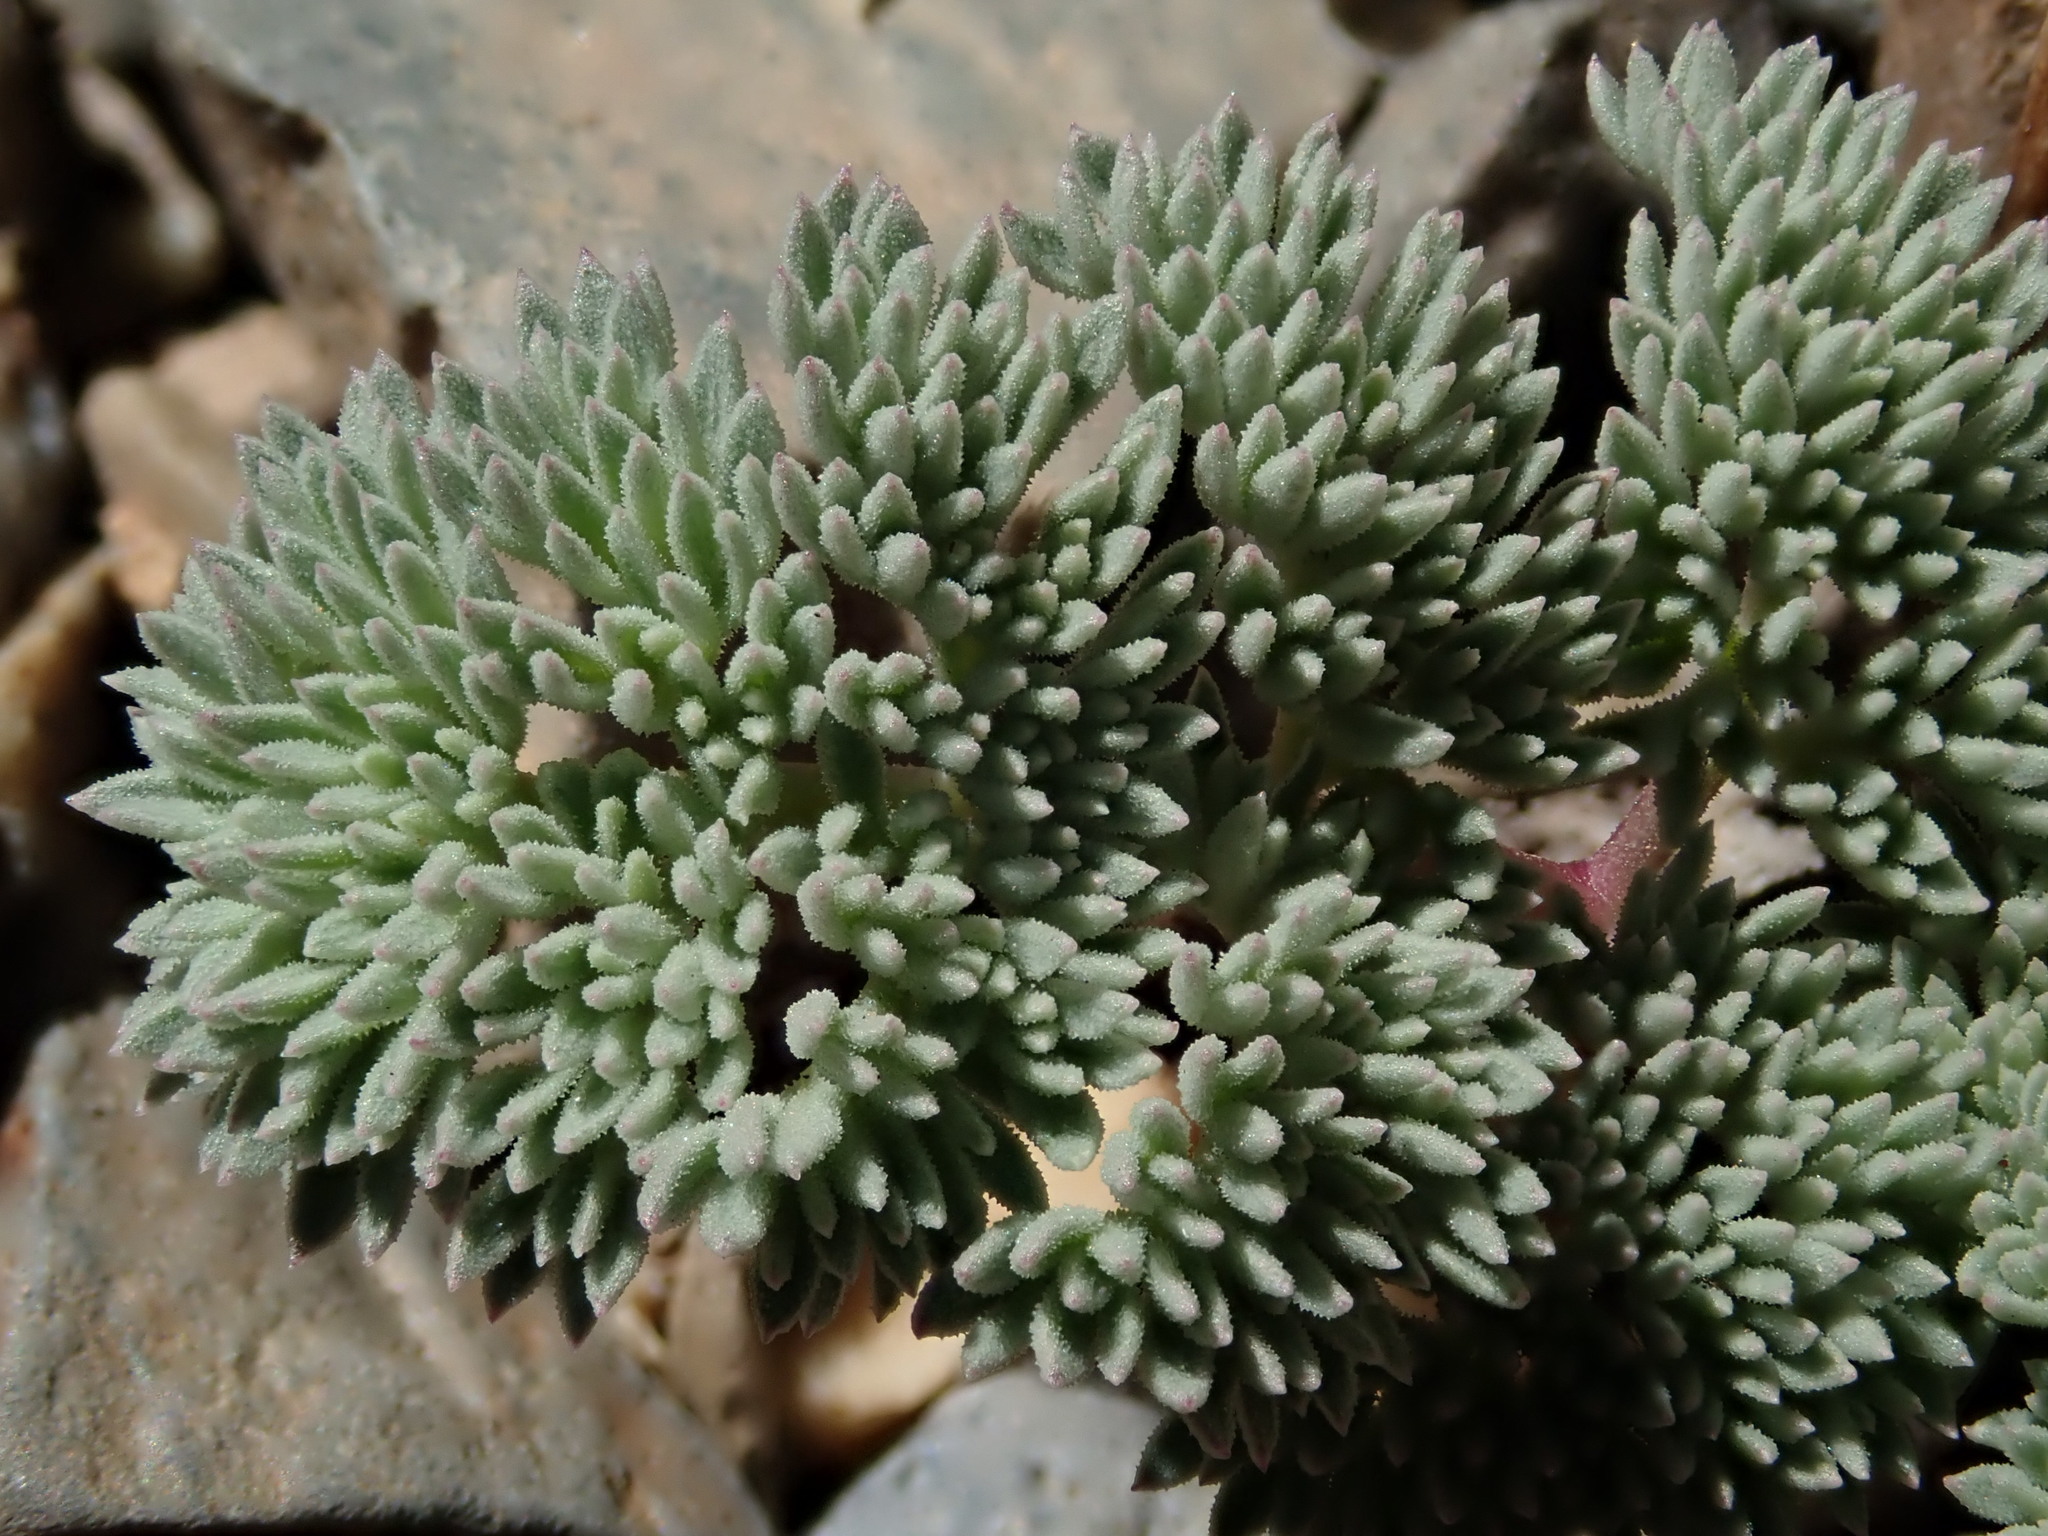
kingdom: Plantae
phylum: Tracheophyta
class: Magnoliopsida
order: Apiales
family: Apiaceae
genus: Aulospermum
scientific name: Aulospermum aboriginum
